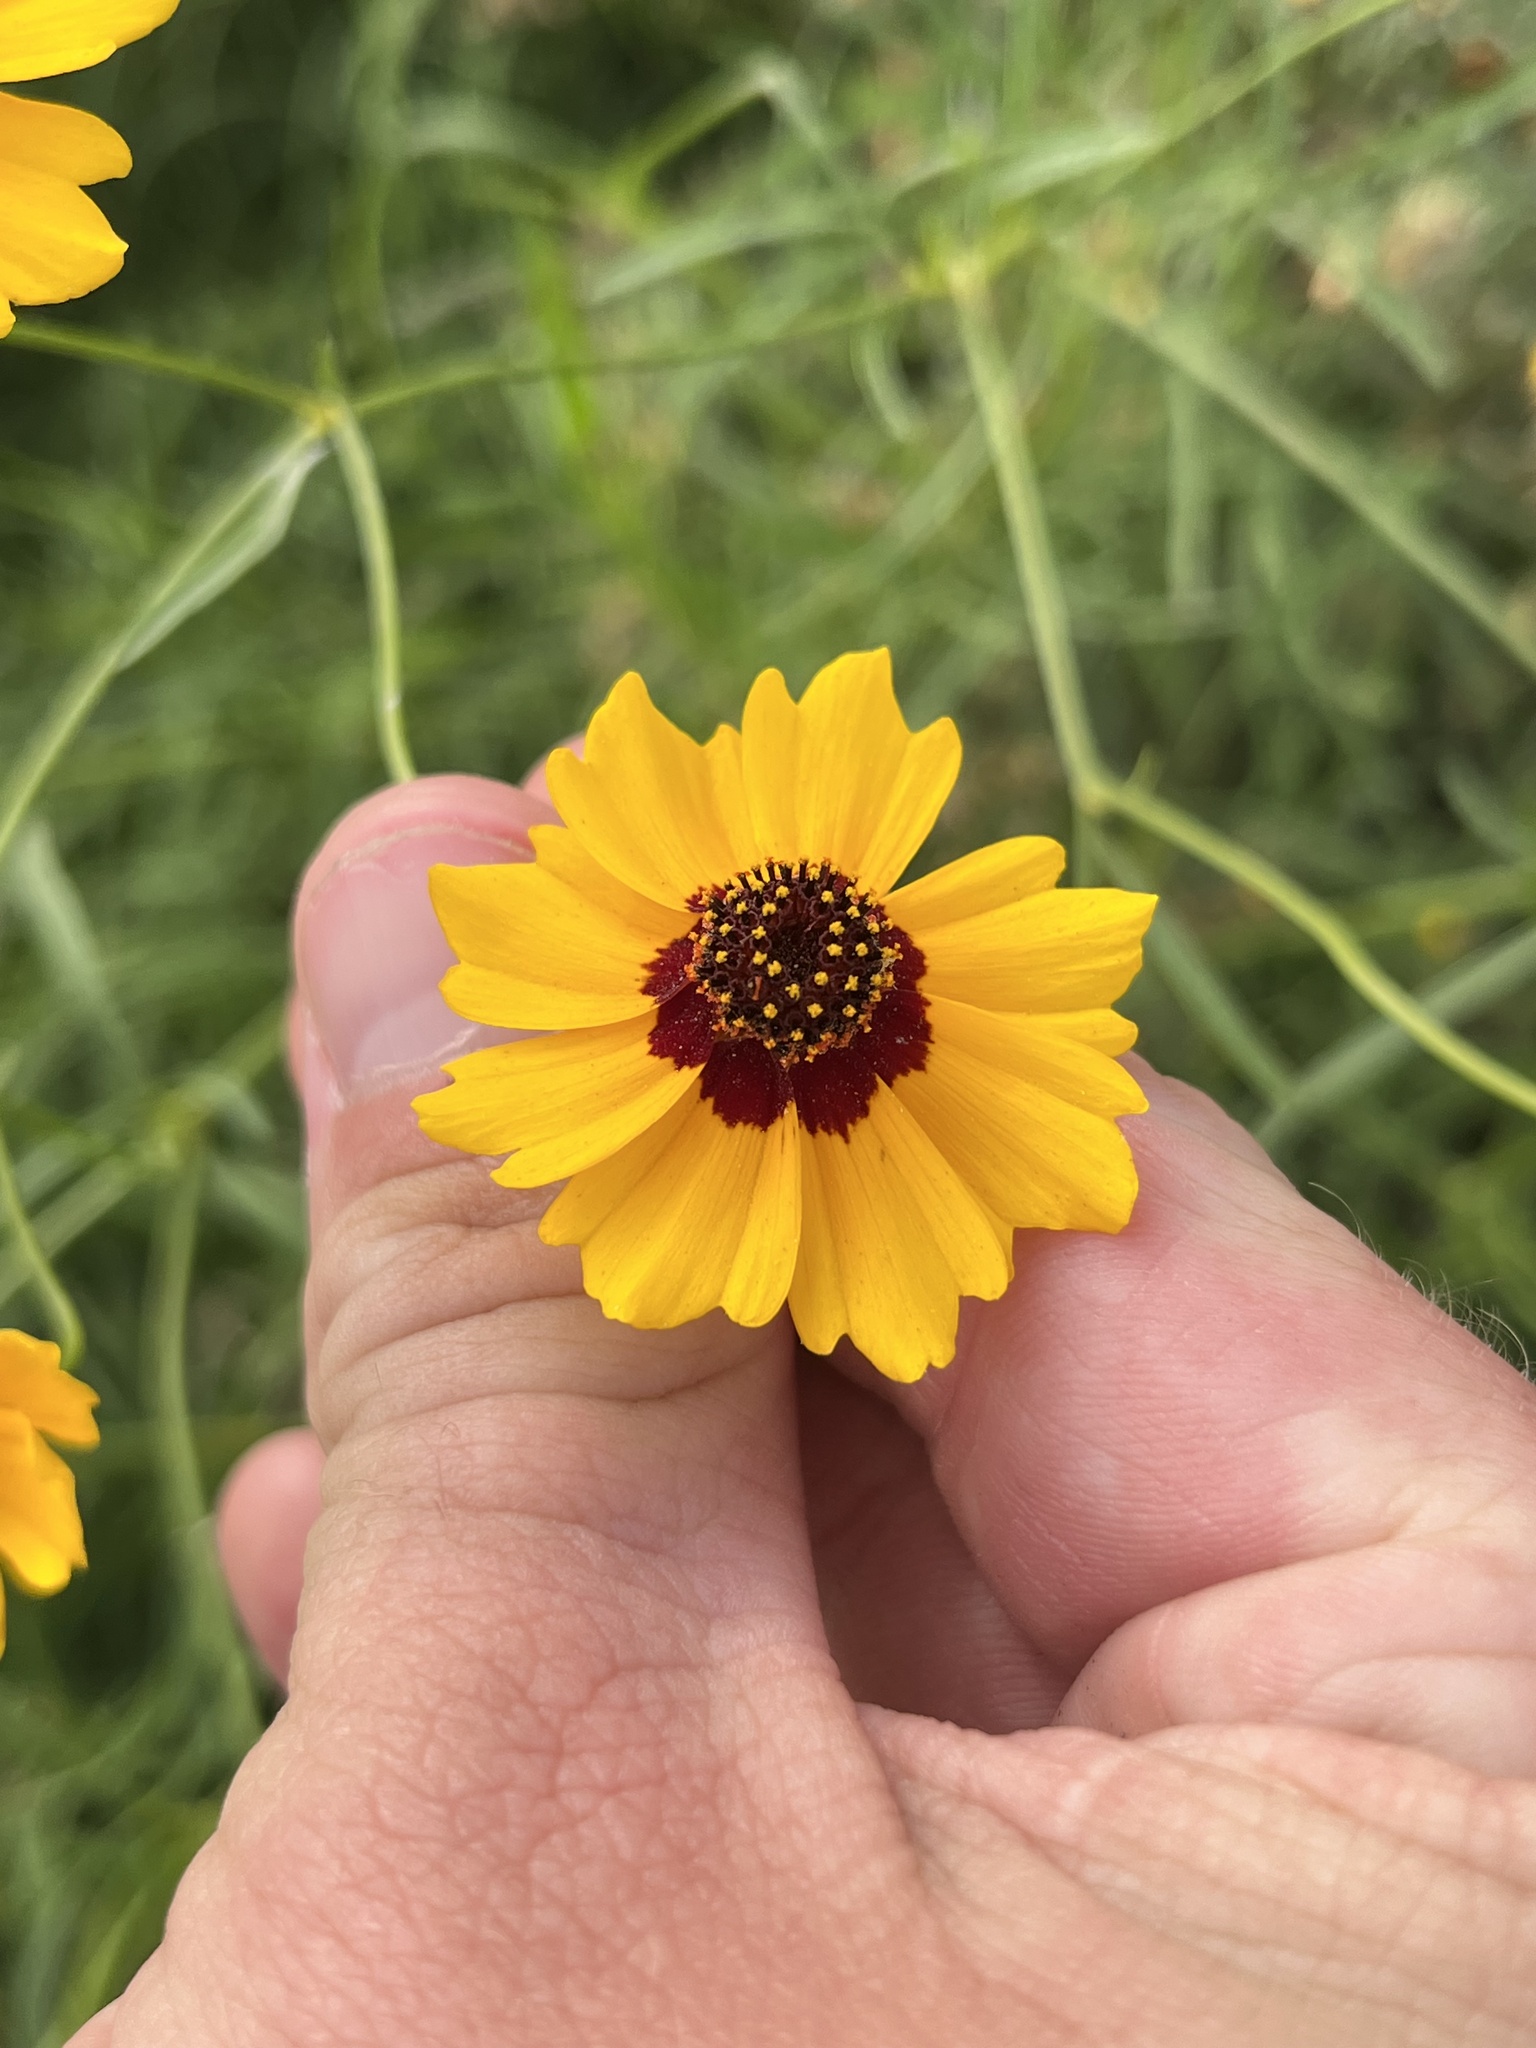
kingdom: Plantae
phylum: Tracheophyta
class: Magnoliopsida
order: Asterales
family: Asteraceae
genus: Coreopsis
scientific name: Coreopsis tinctoria
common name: Garden tickseed
